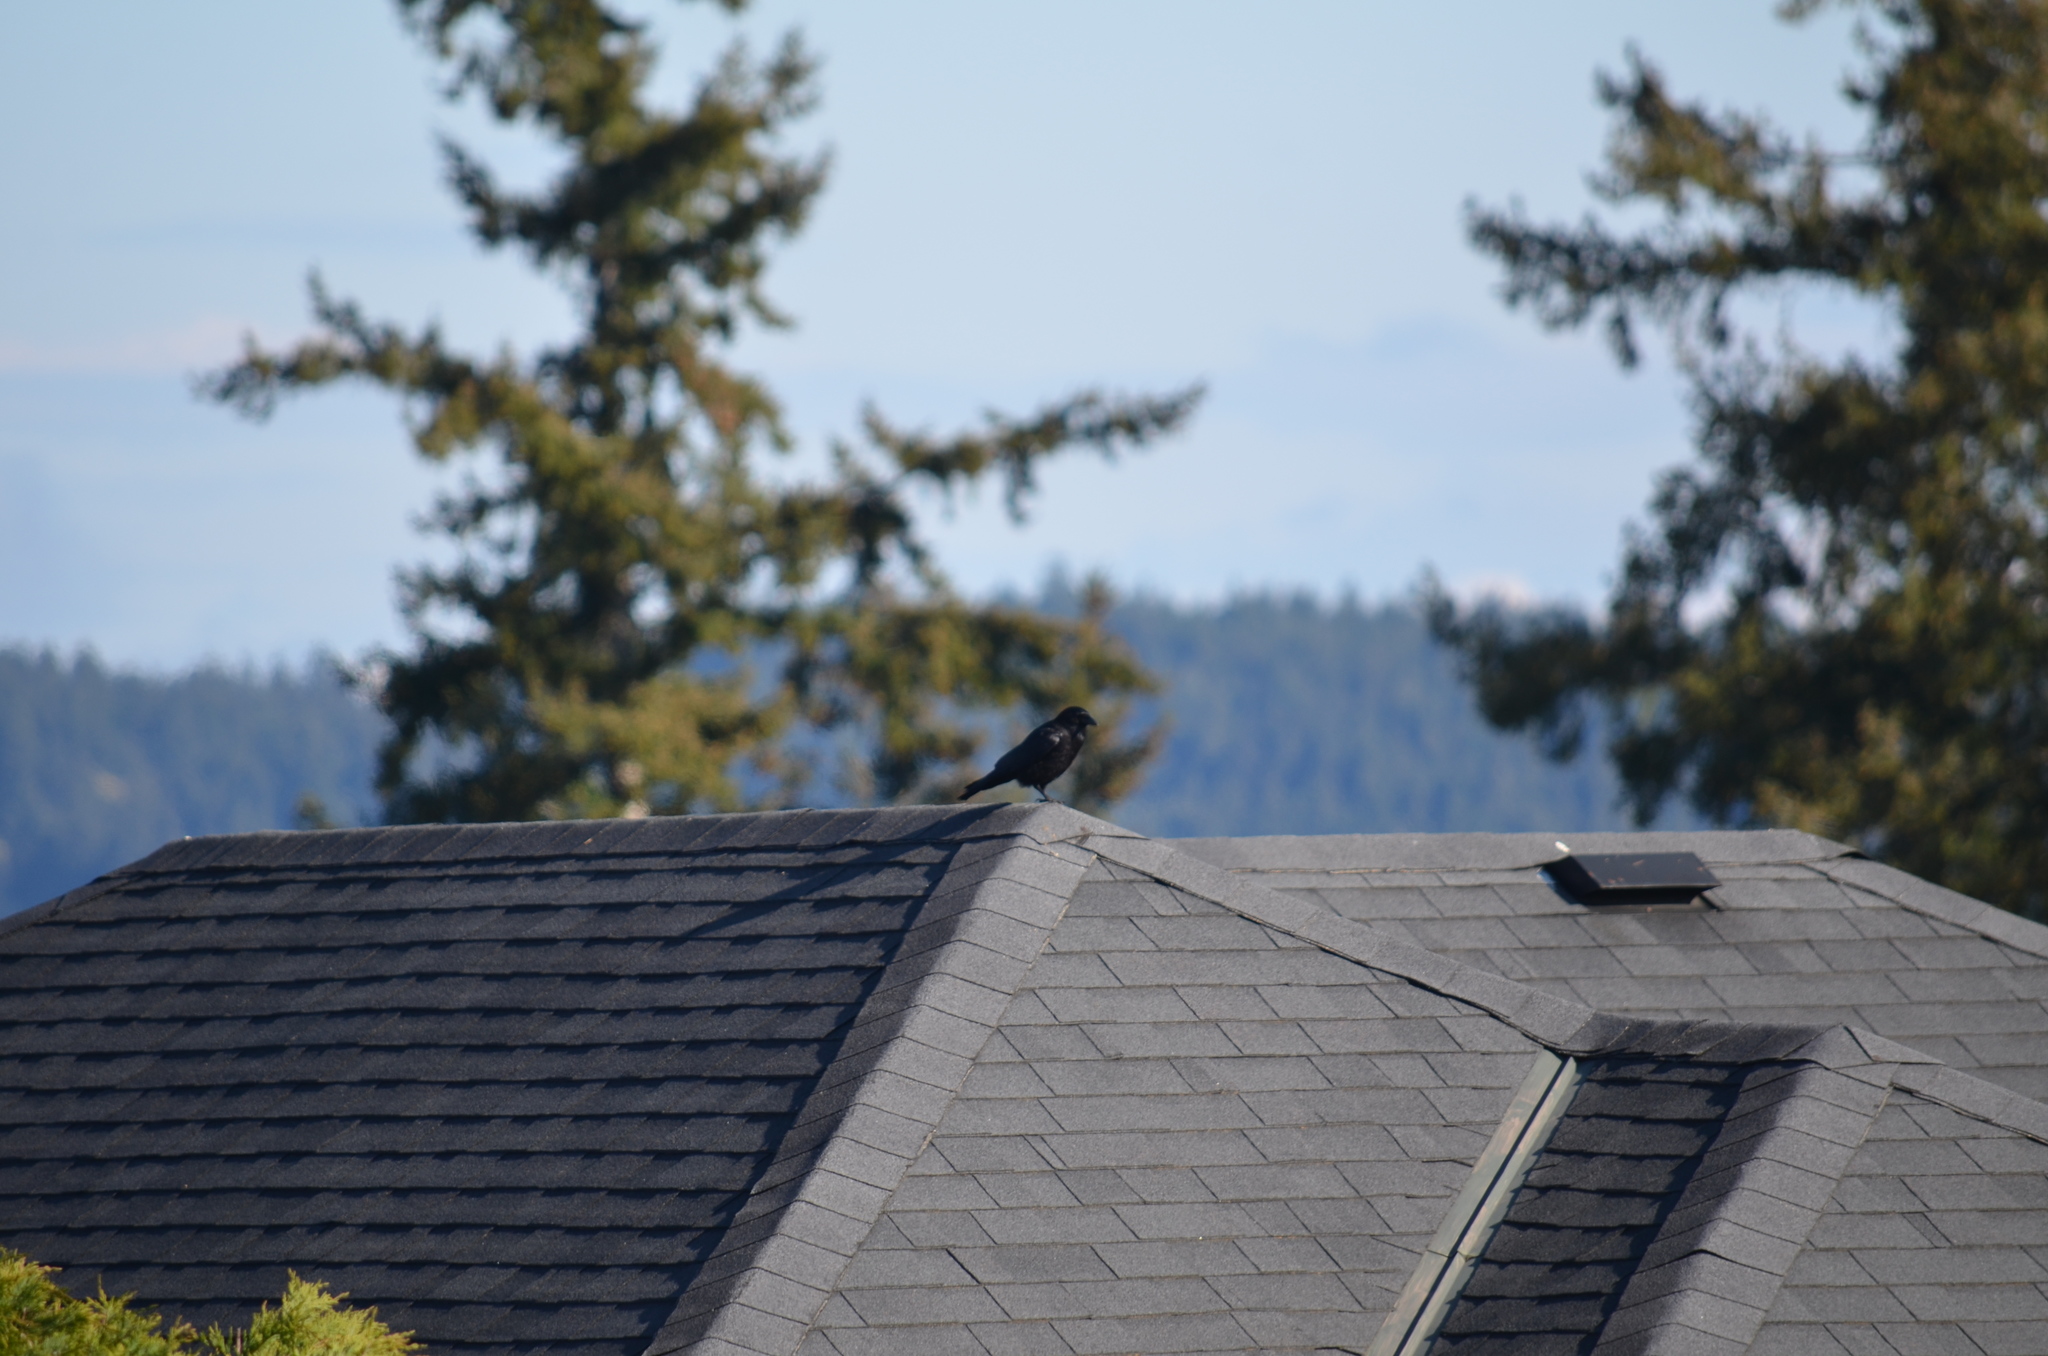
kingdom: Animalia
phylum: Chordata
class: Aves
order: Passeriformes
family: Corvidae
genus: Corvus
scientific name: Corvus brachyrhynchos
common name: American crow
